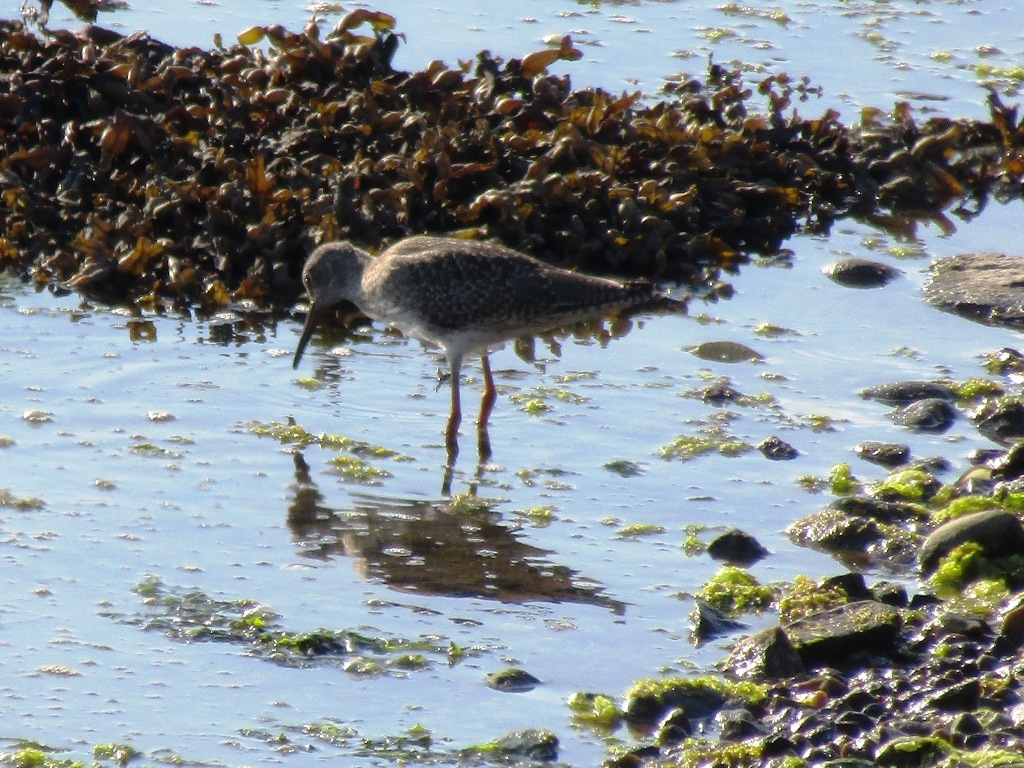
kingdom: Animalia
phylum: Chordata
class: Aves
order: Charadriiformes
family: Scolopacidae
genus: Tringa
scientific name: Tringa totanus
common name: Common redshank
